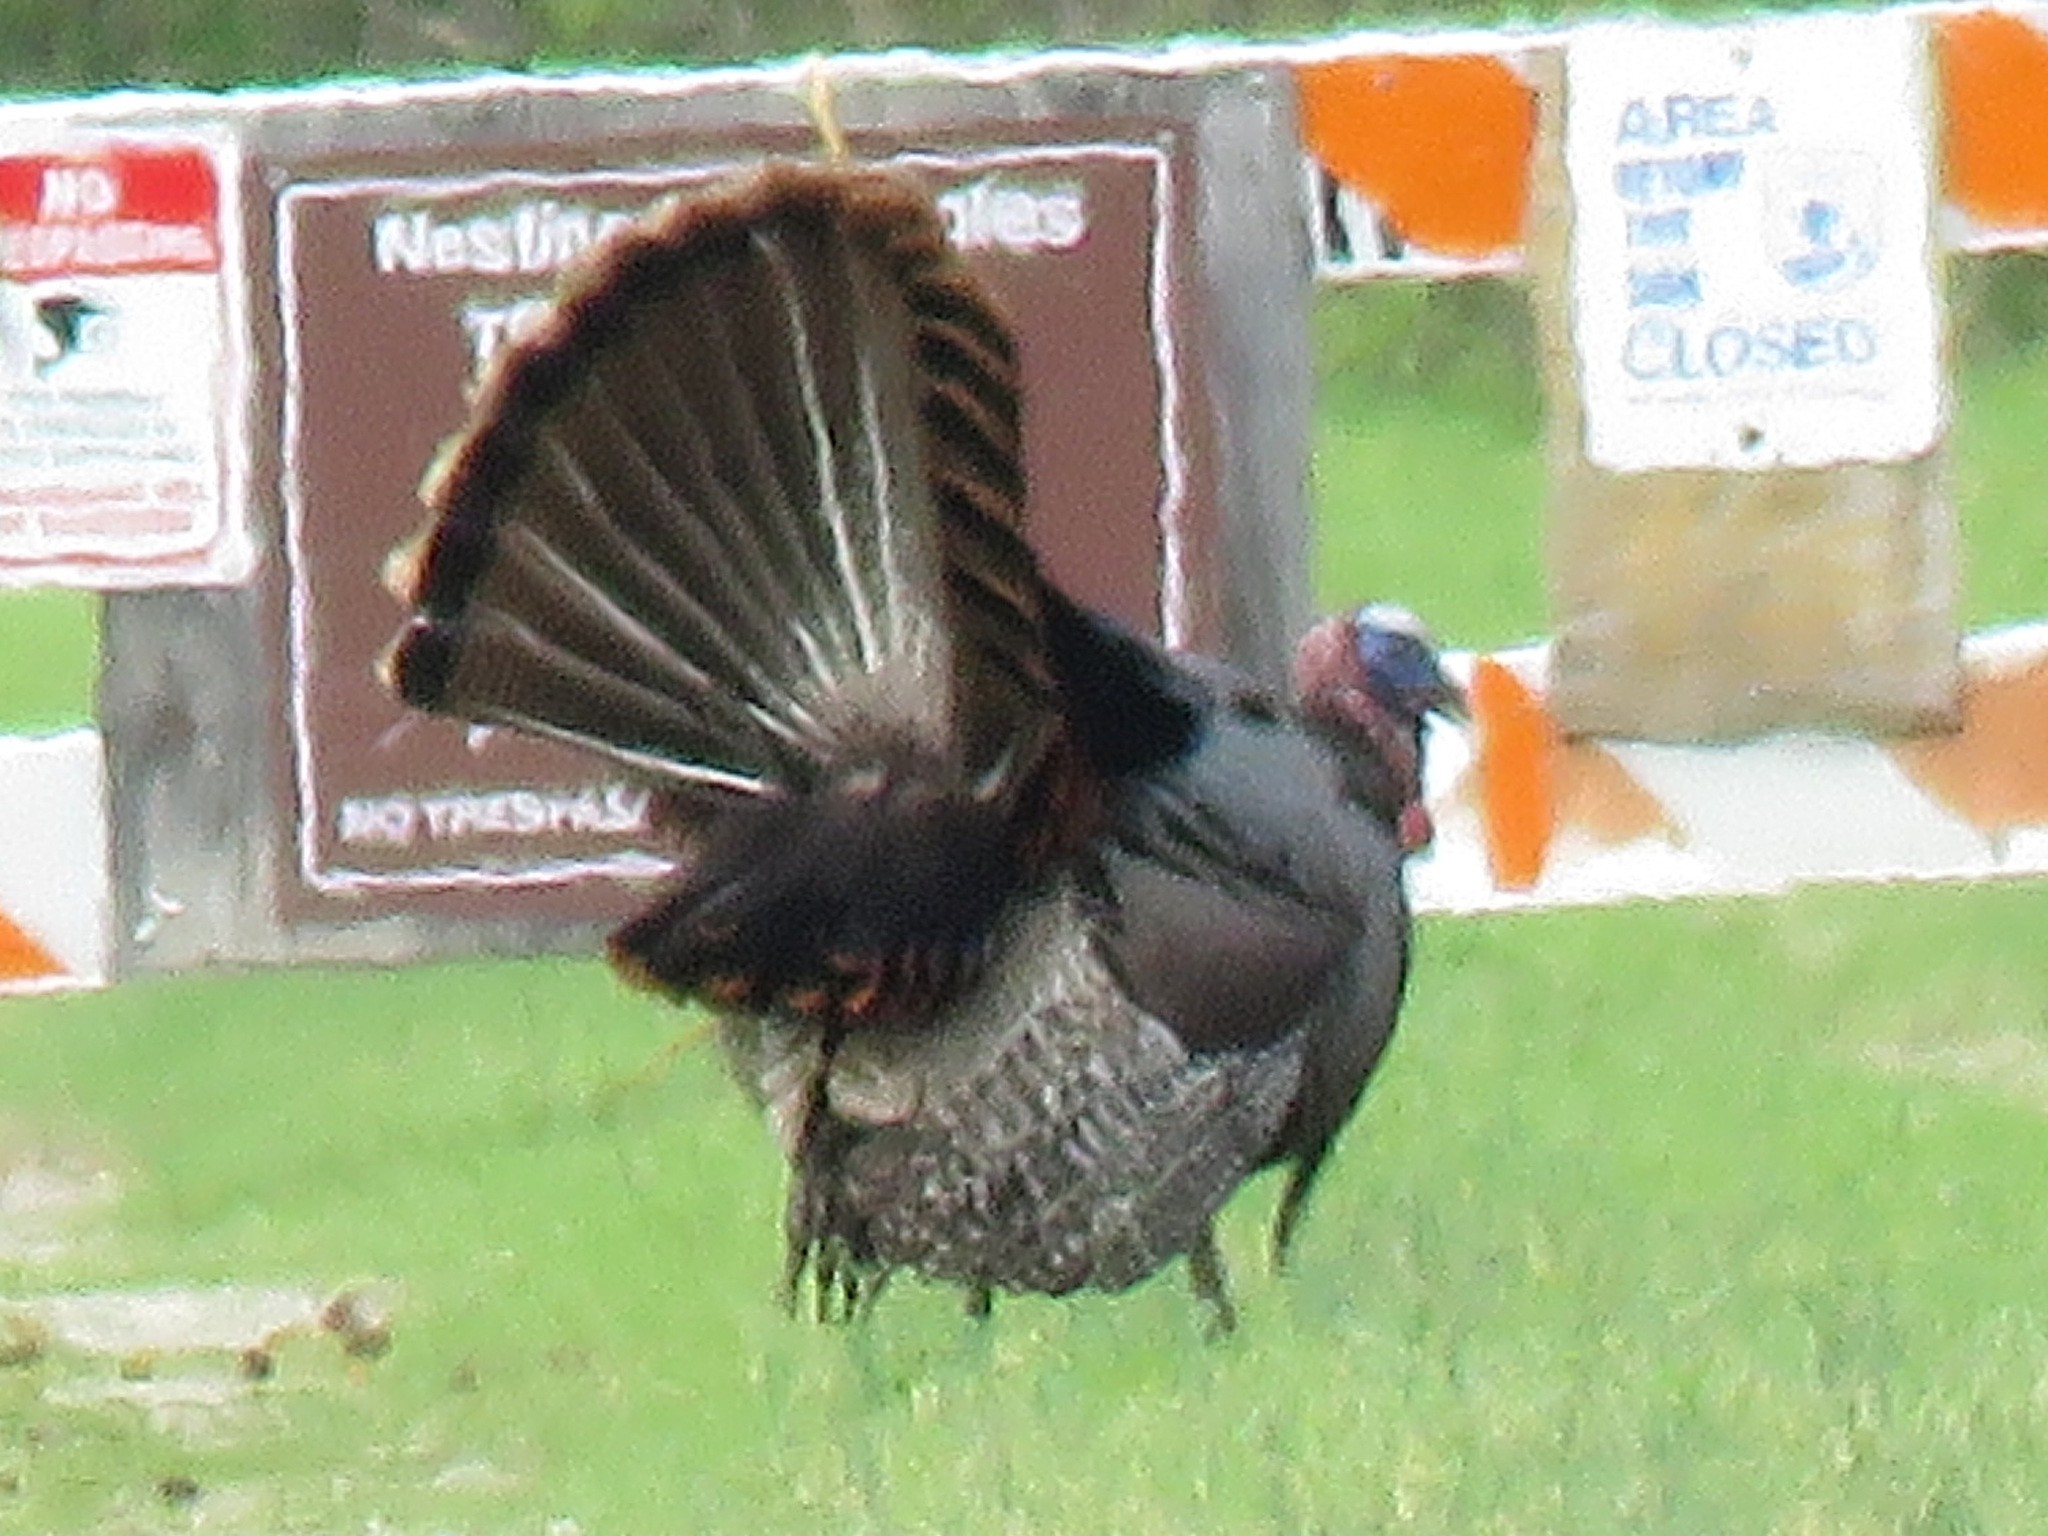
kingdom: Animalia
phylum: Chordata
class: Aves
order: Galliformes
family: Phasianidae
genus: Meleagris
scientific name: Meleagris gallopavo
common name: Wild turkey
